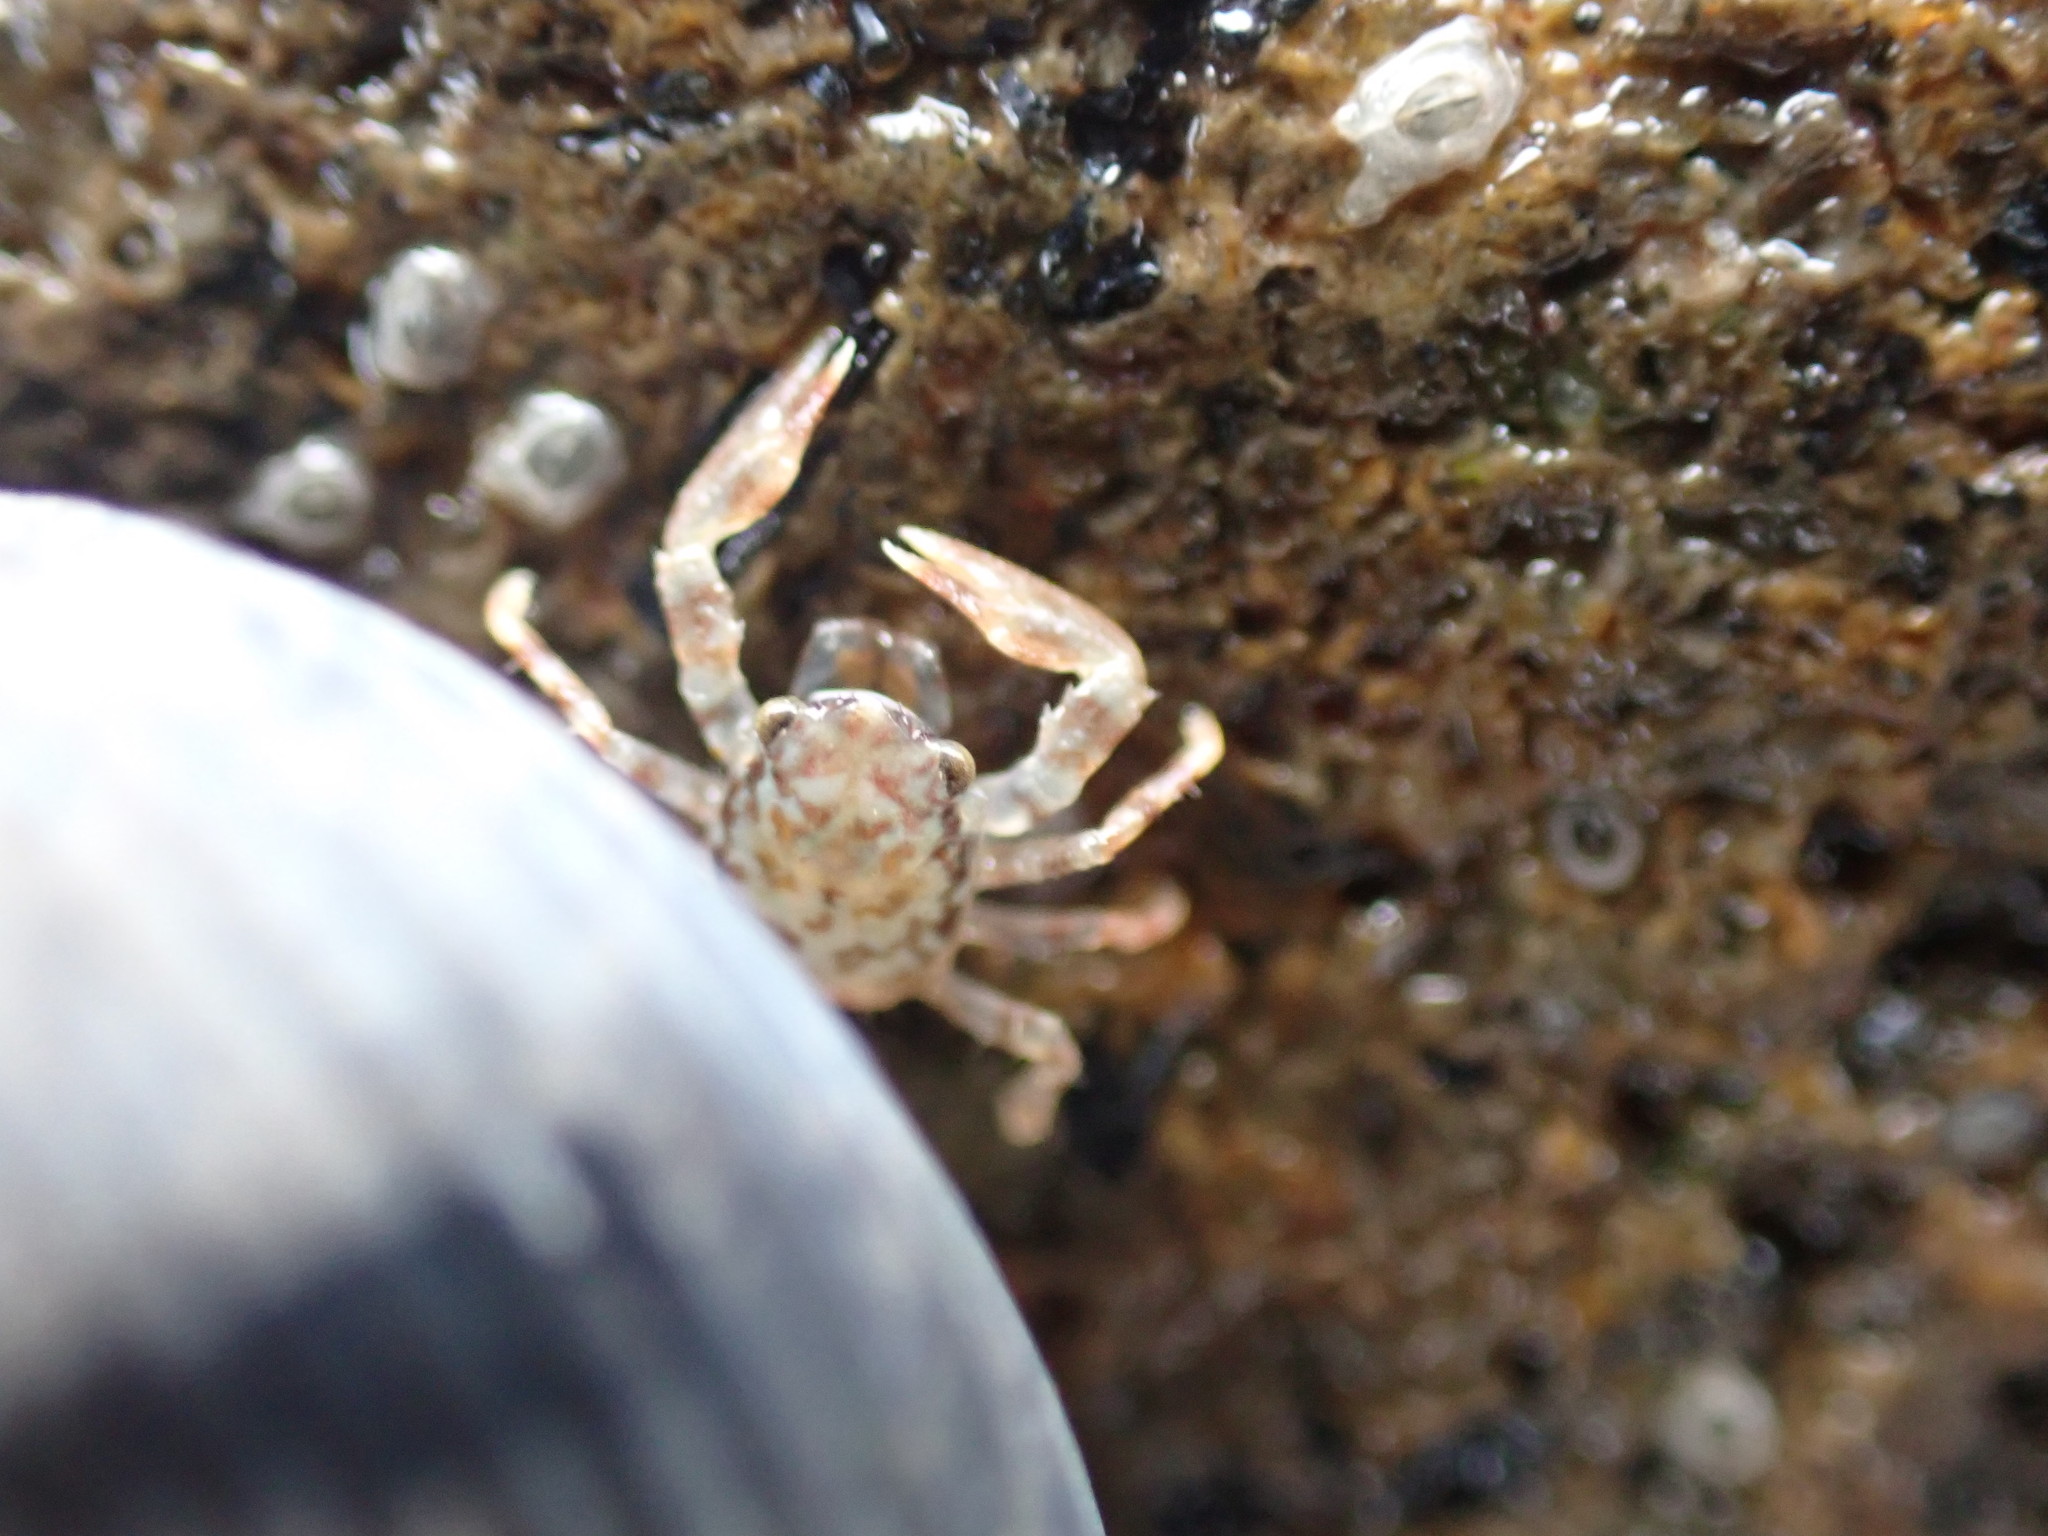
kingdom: Animalia
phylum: Arthropoda
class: Malacostraca
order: Decapoda
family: Porcellanidae
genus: Petrocheles
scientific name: Petrocheles spinosus
